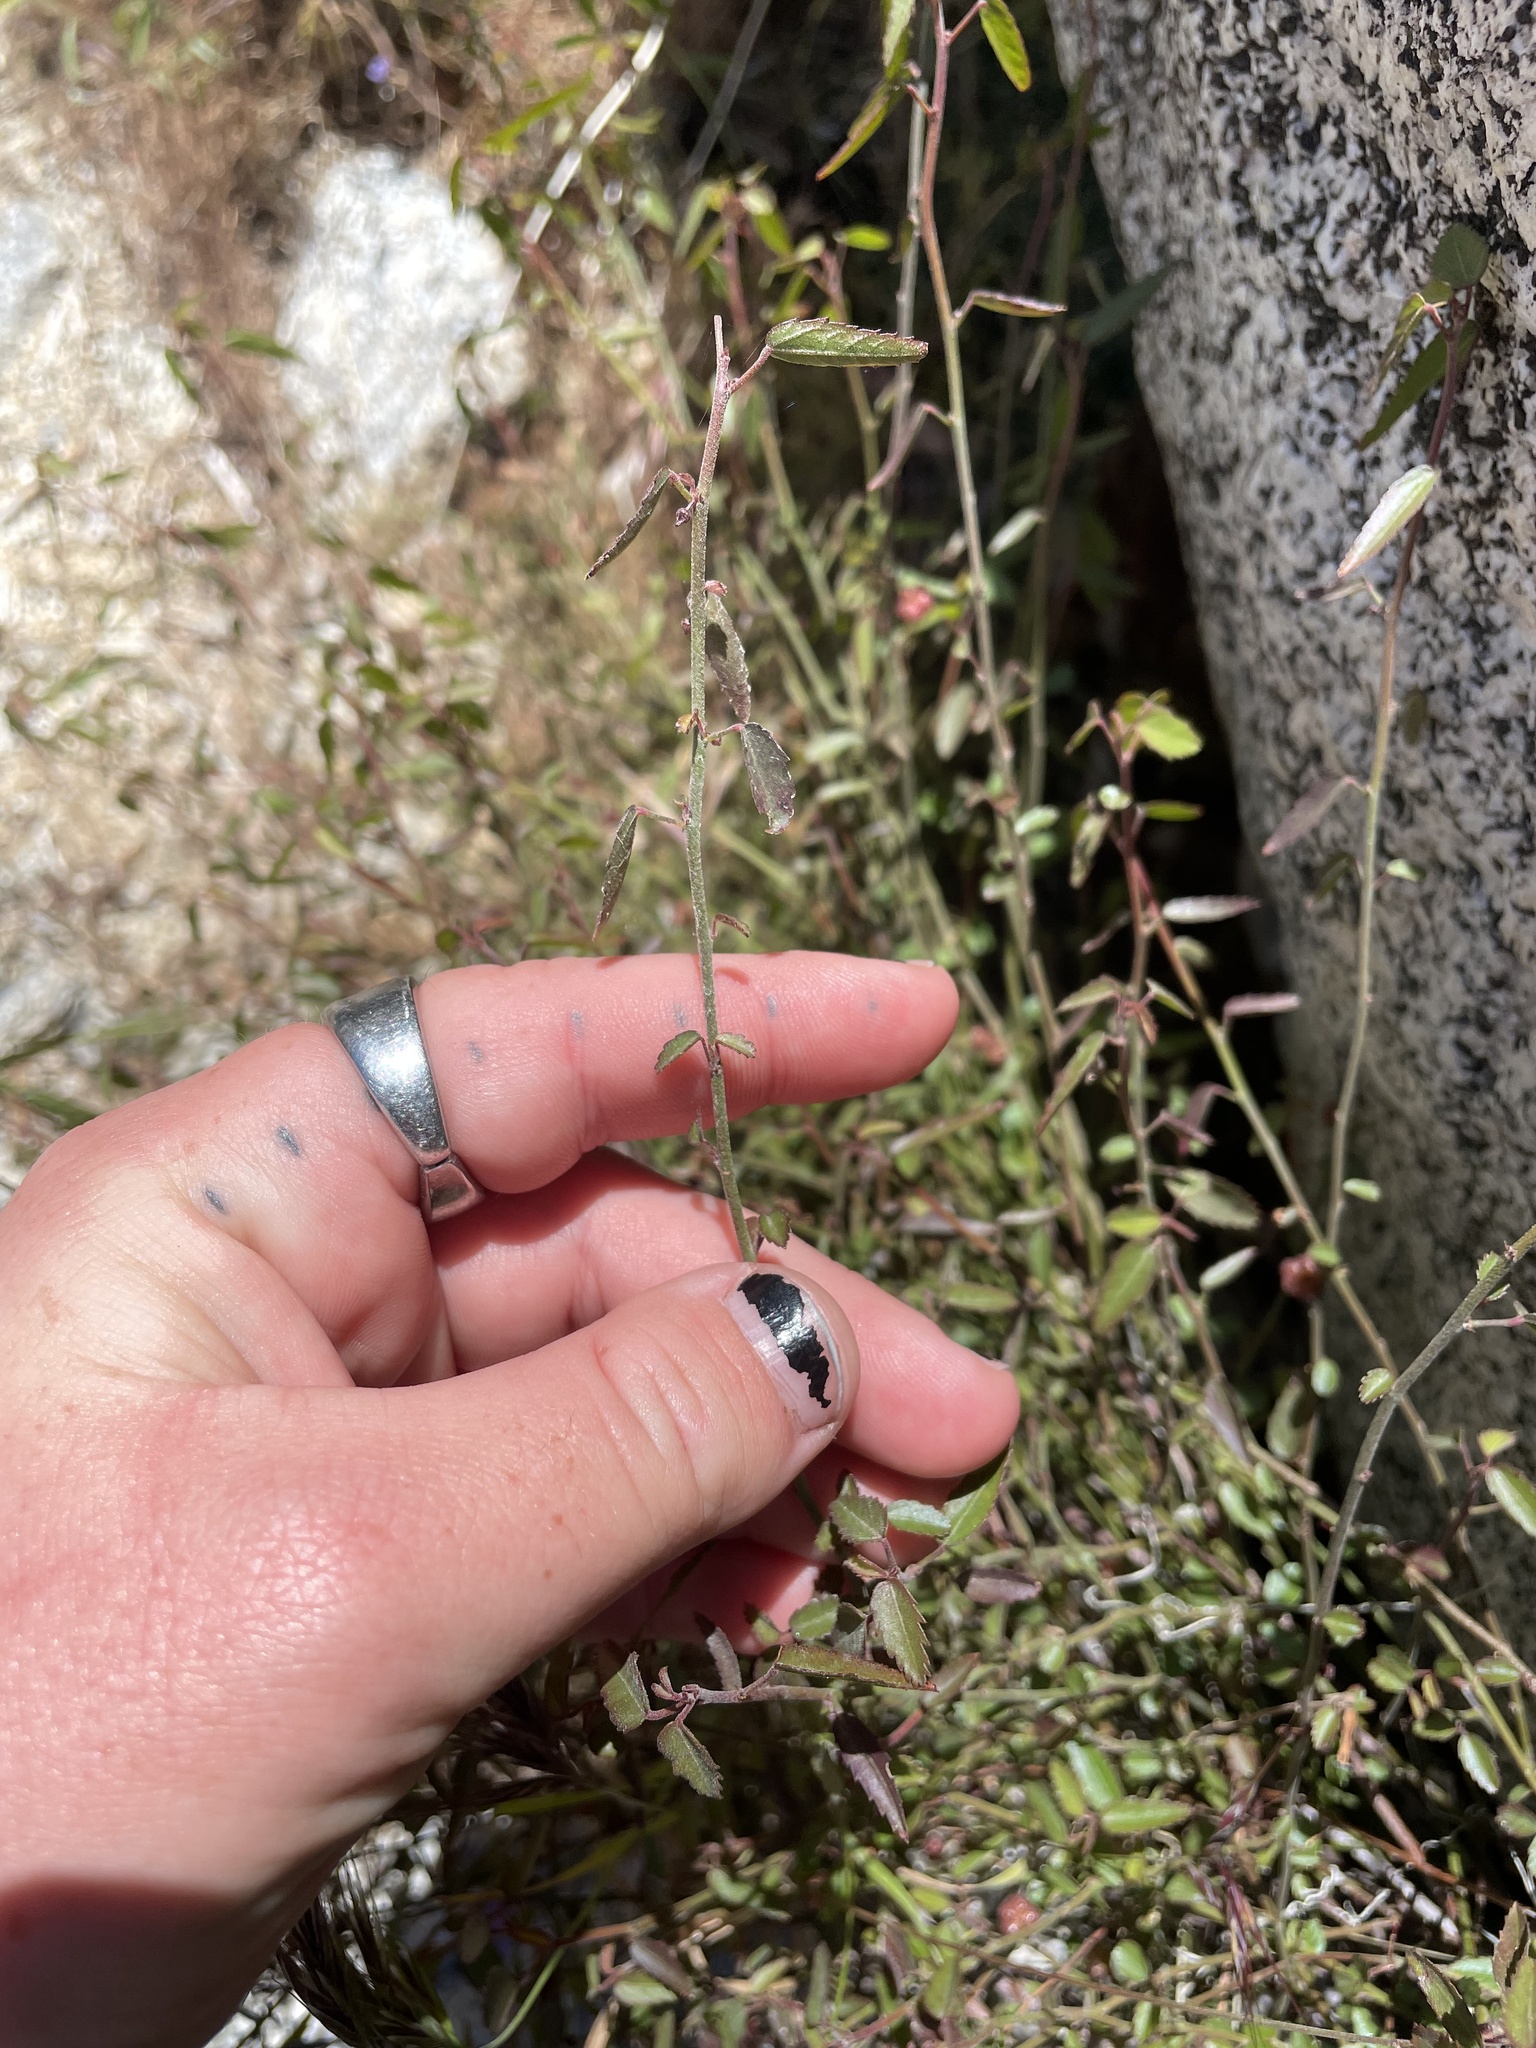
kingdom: Plantae
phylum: Tracheophyta
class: Magnoliopsida
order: Malvales
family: Malvaceae
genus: Ayenia
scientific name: Ayenia compacta
